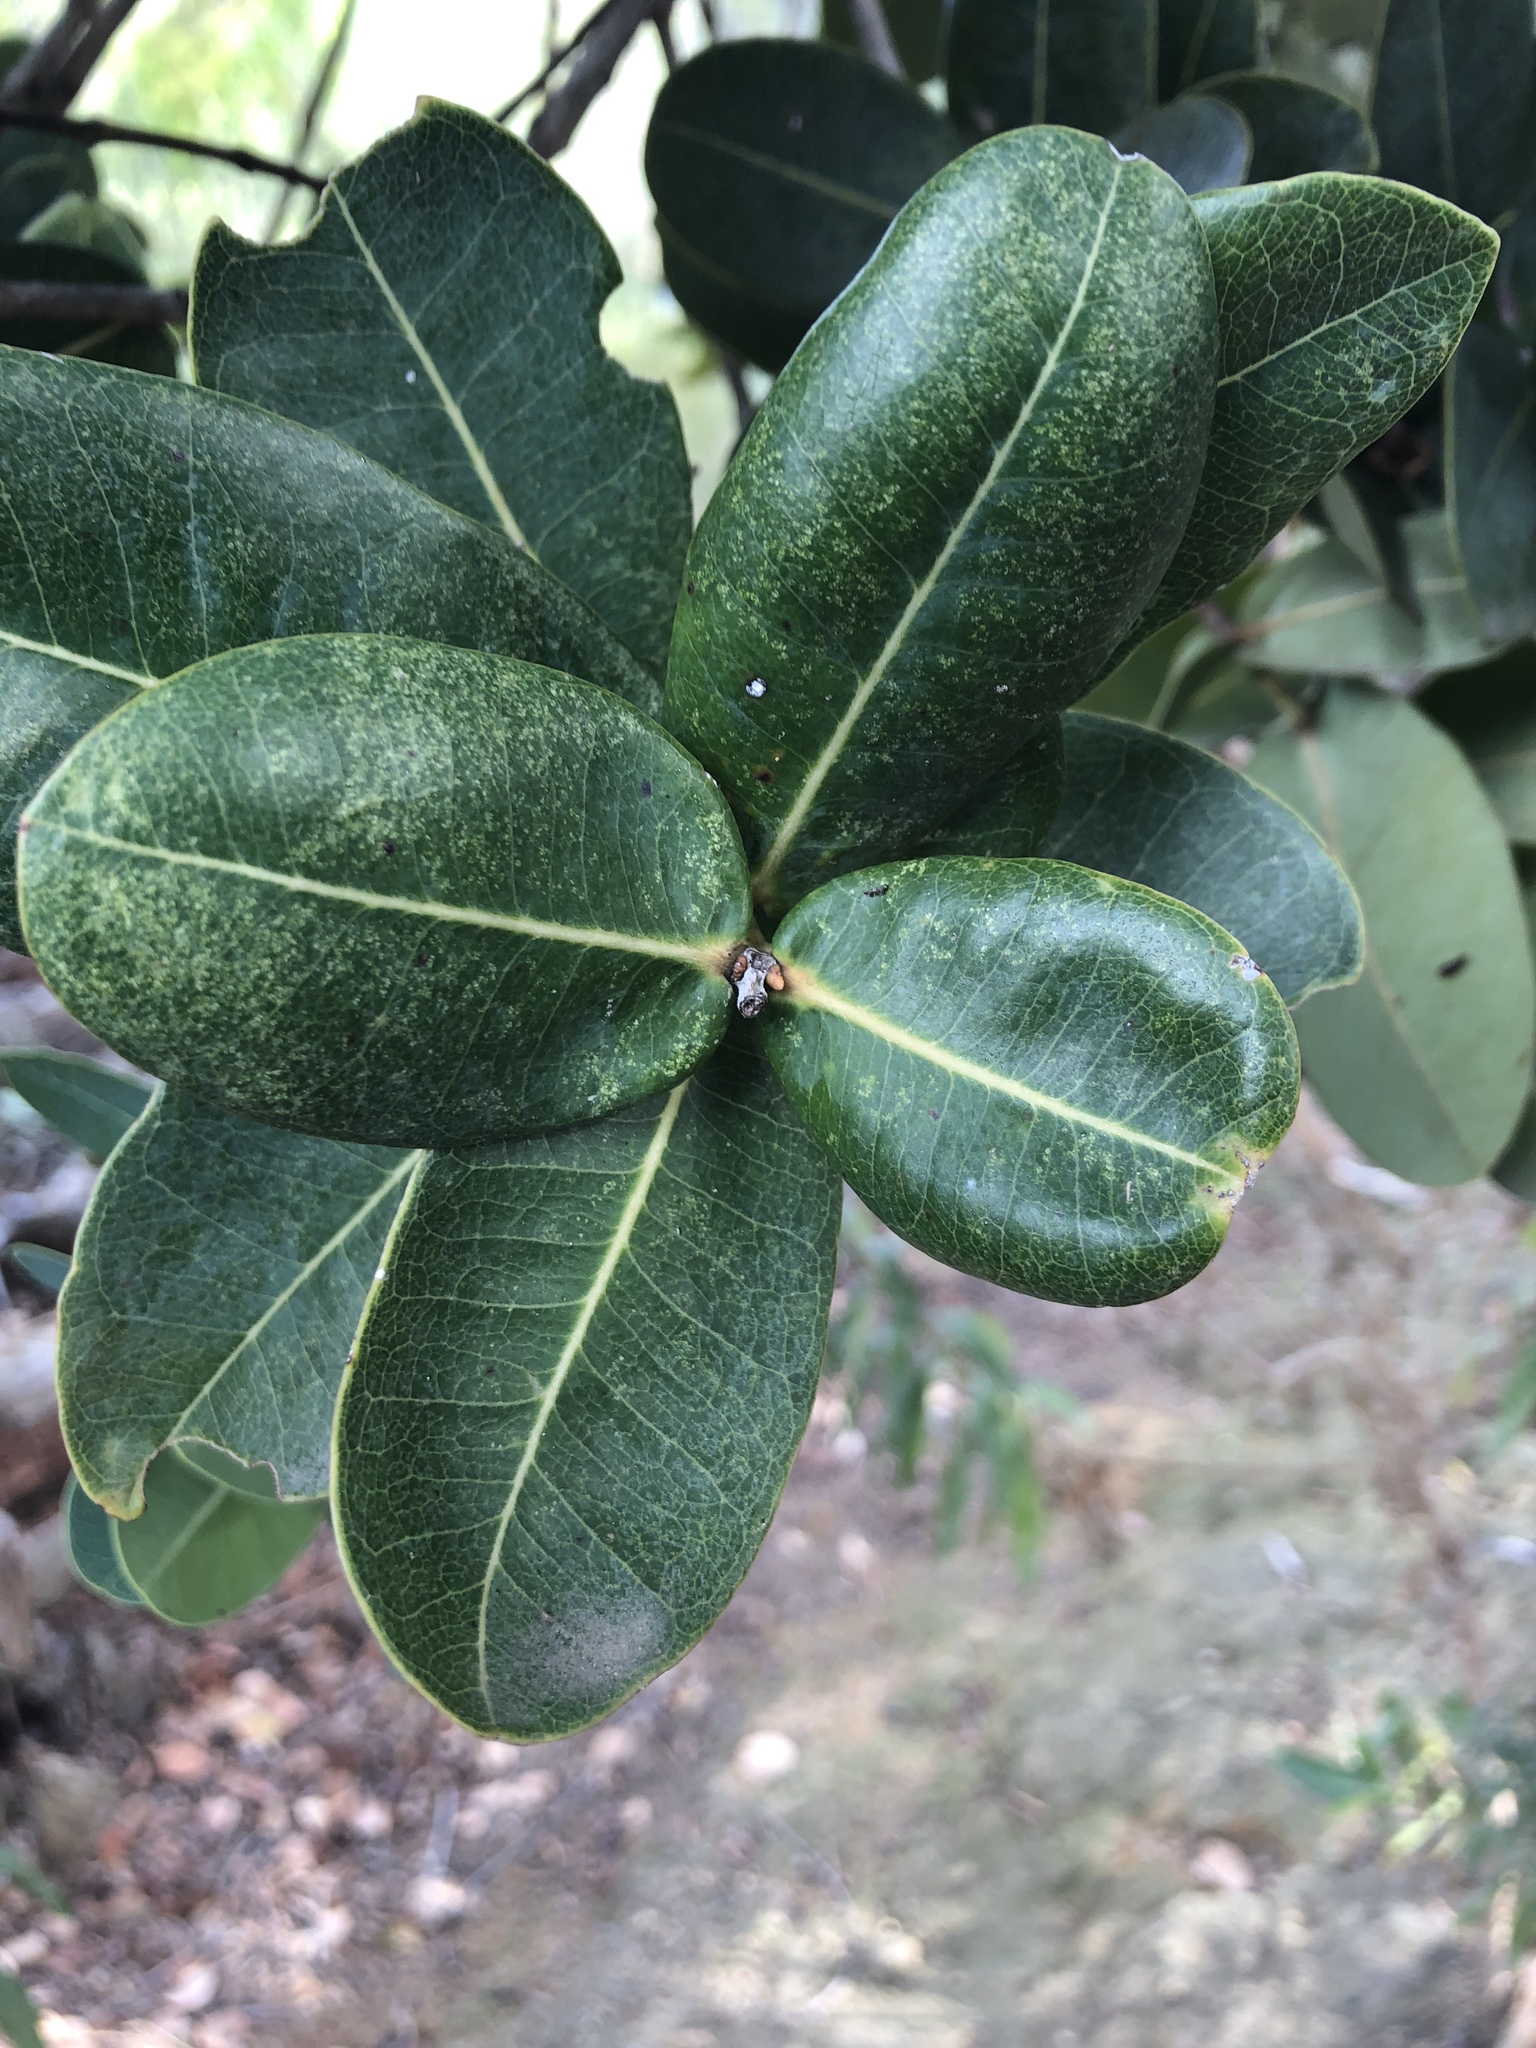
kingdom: Plantae
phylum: Tracheophyta
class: Magnoliopsida
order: Myrtales
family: Myrtaceae
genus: Syzygium
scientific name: Syzygium cordatum
